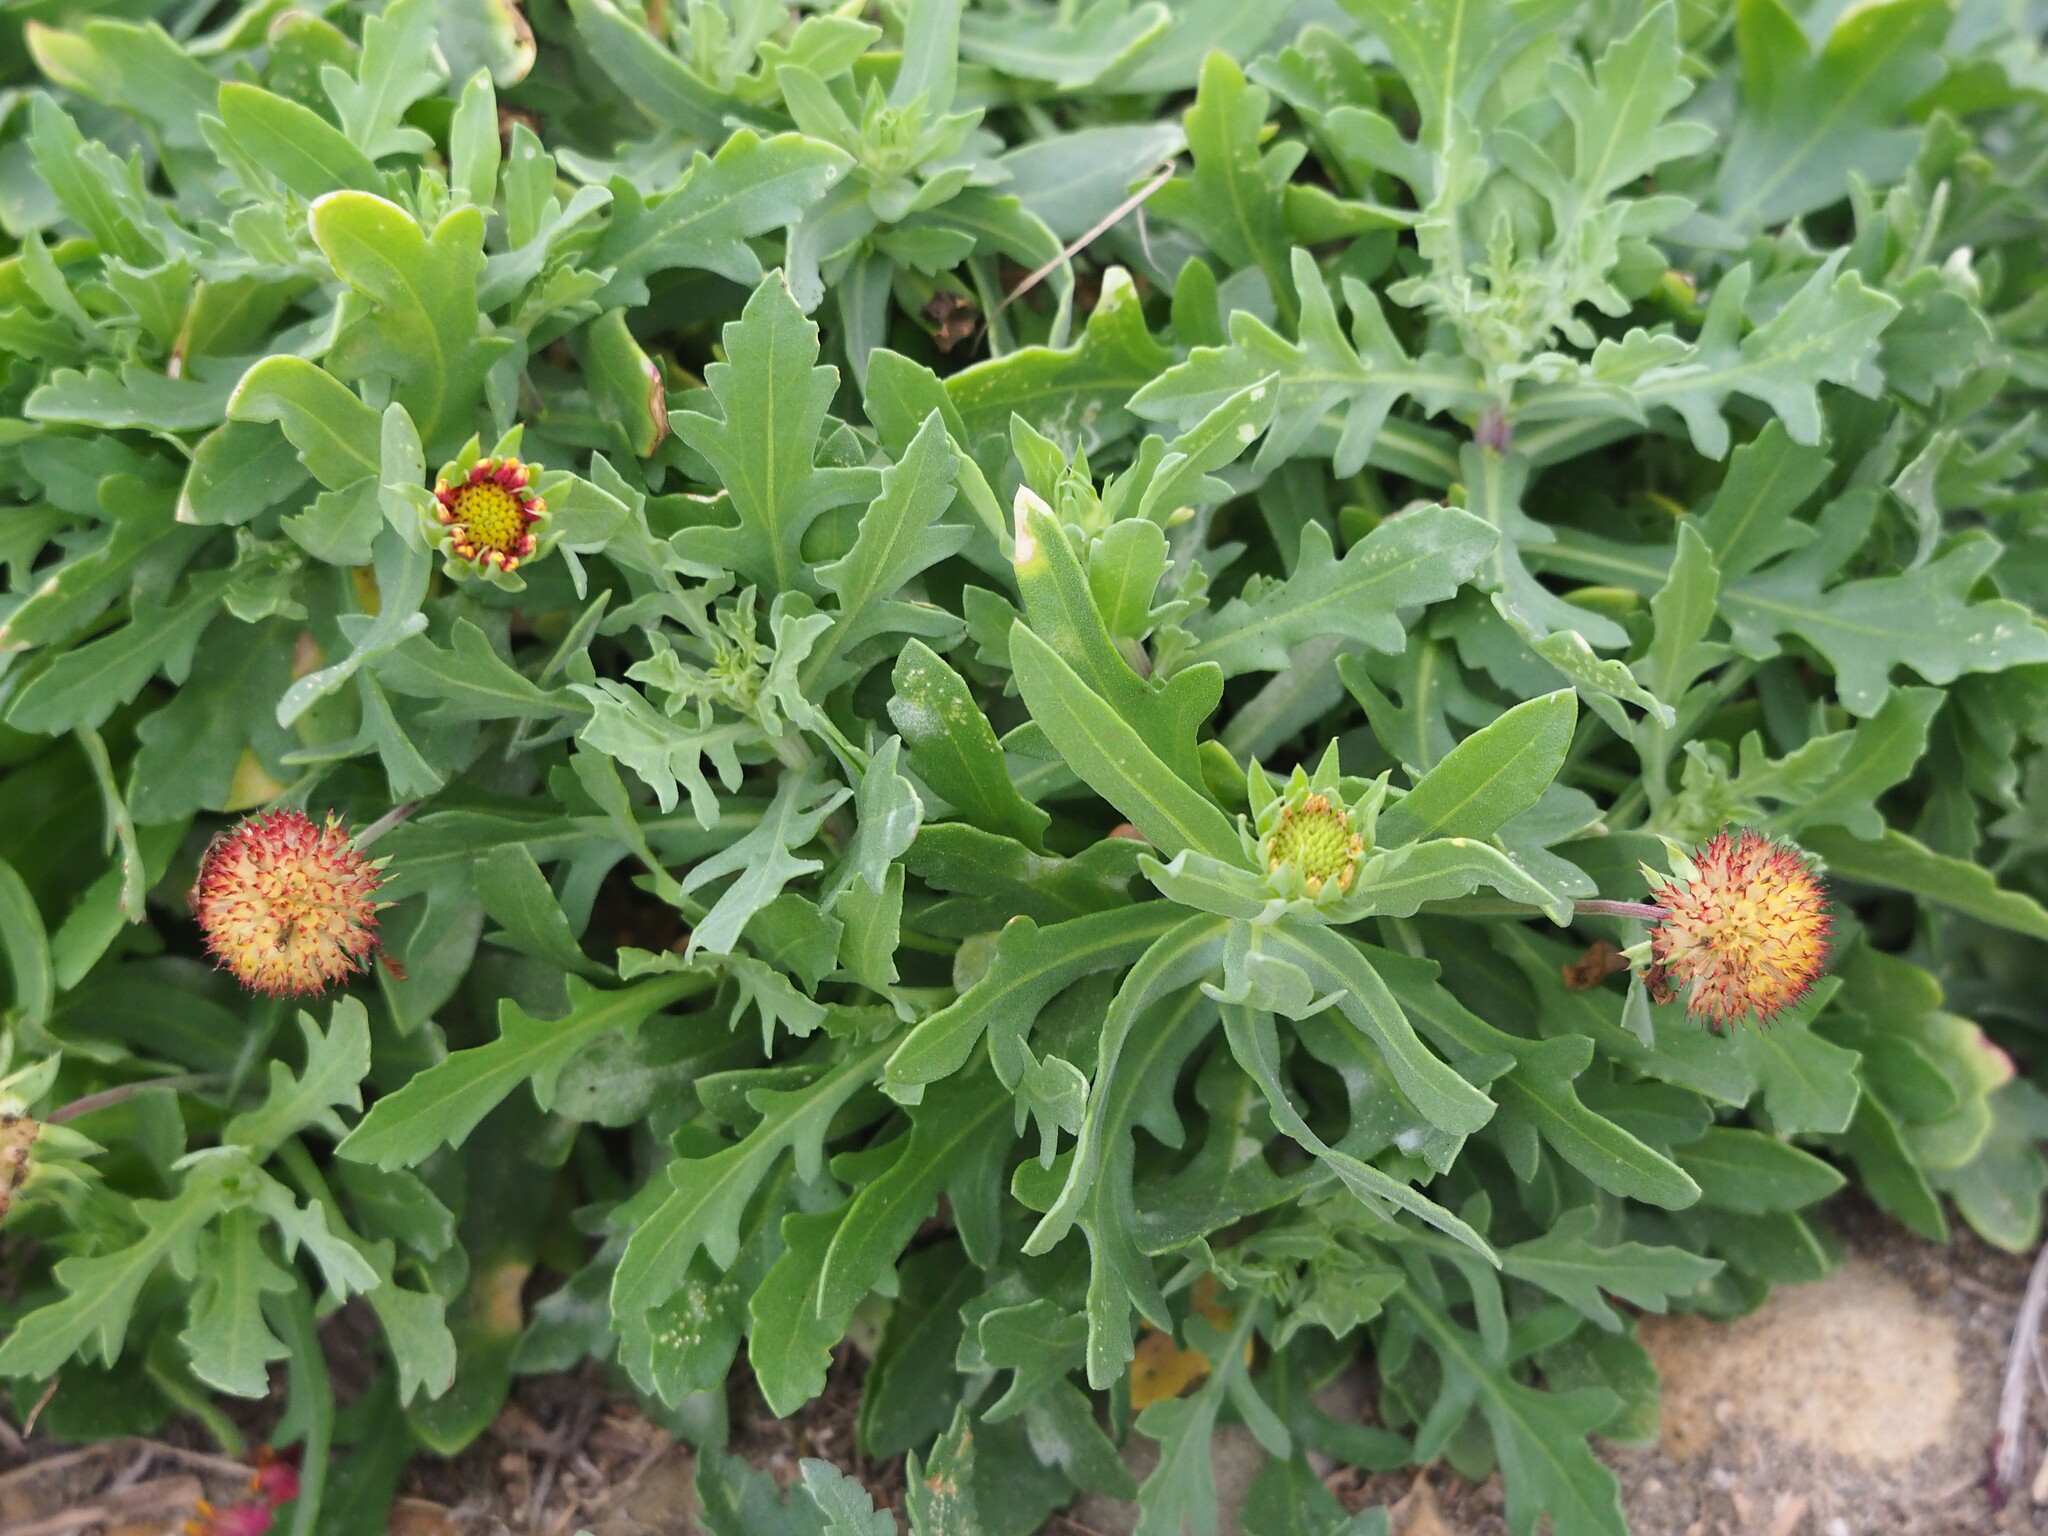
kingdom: Plantae
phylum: Tracheophyta
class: Magnoliopsida
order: Asterales
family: Asteraceae
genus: Gaillardia
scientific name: Gaillardia pulchella
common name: Firewheel
